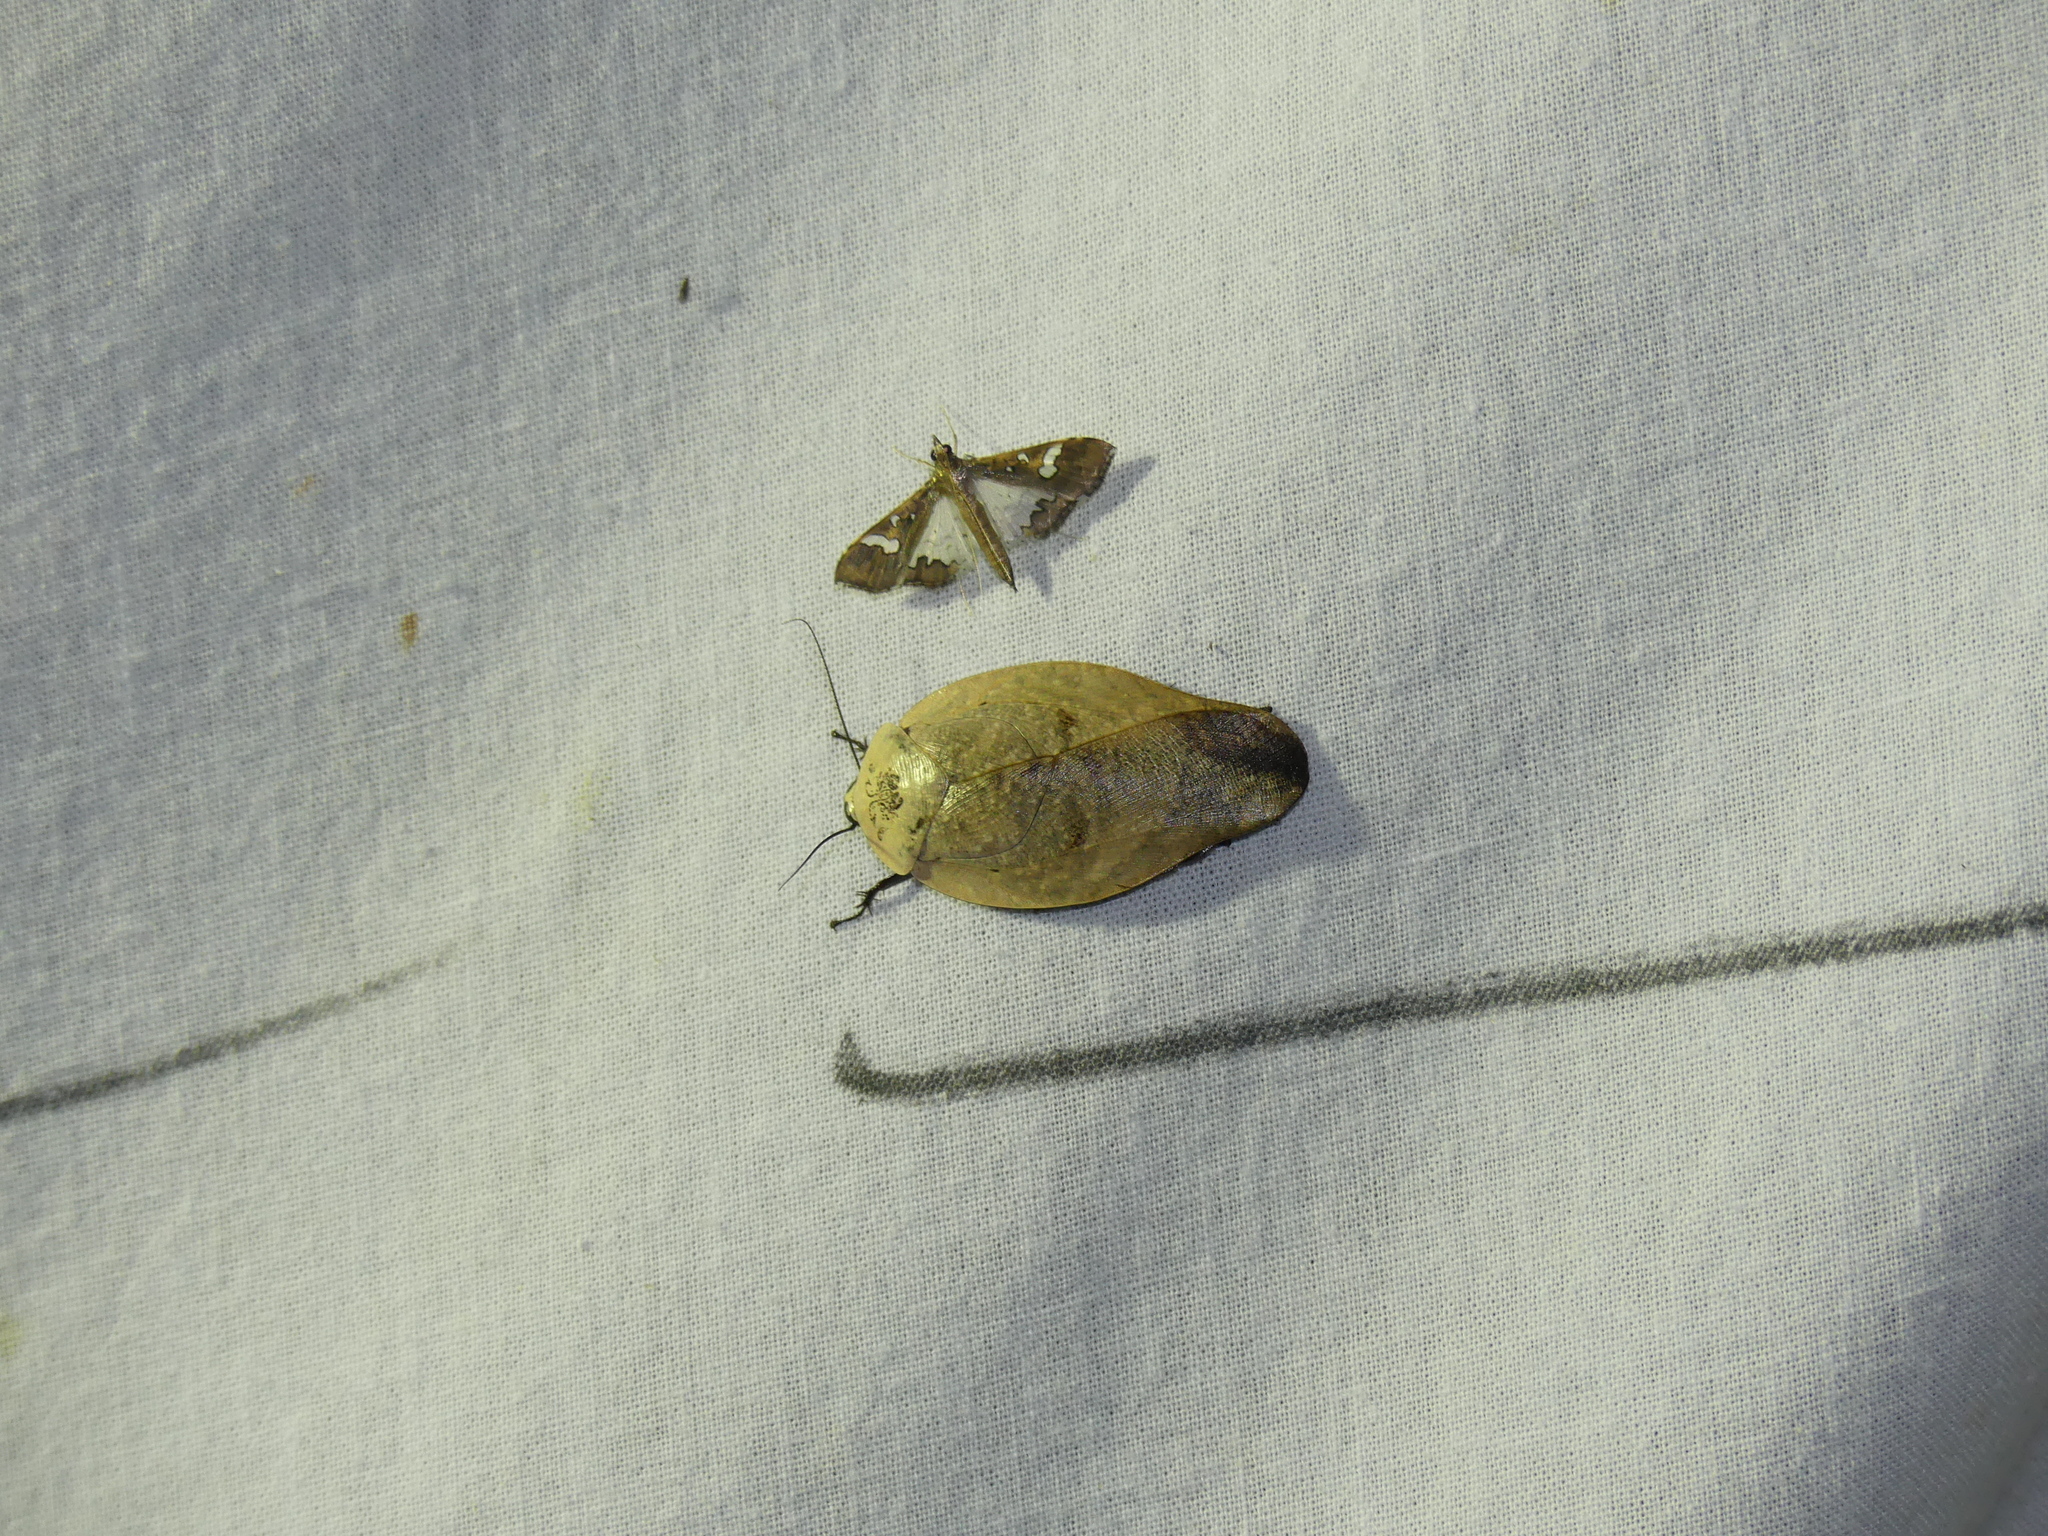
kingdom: Animalia
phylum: Arthropoda
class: Insecta
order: Blattodea
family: Blaberidae
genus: Gyna
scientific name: Gyna lurida
